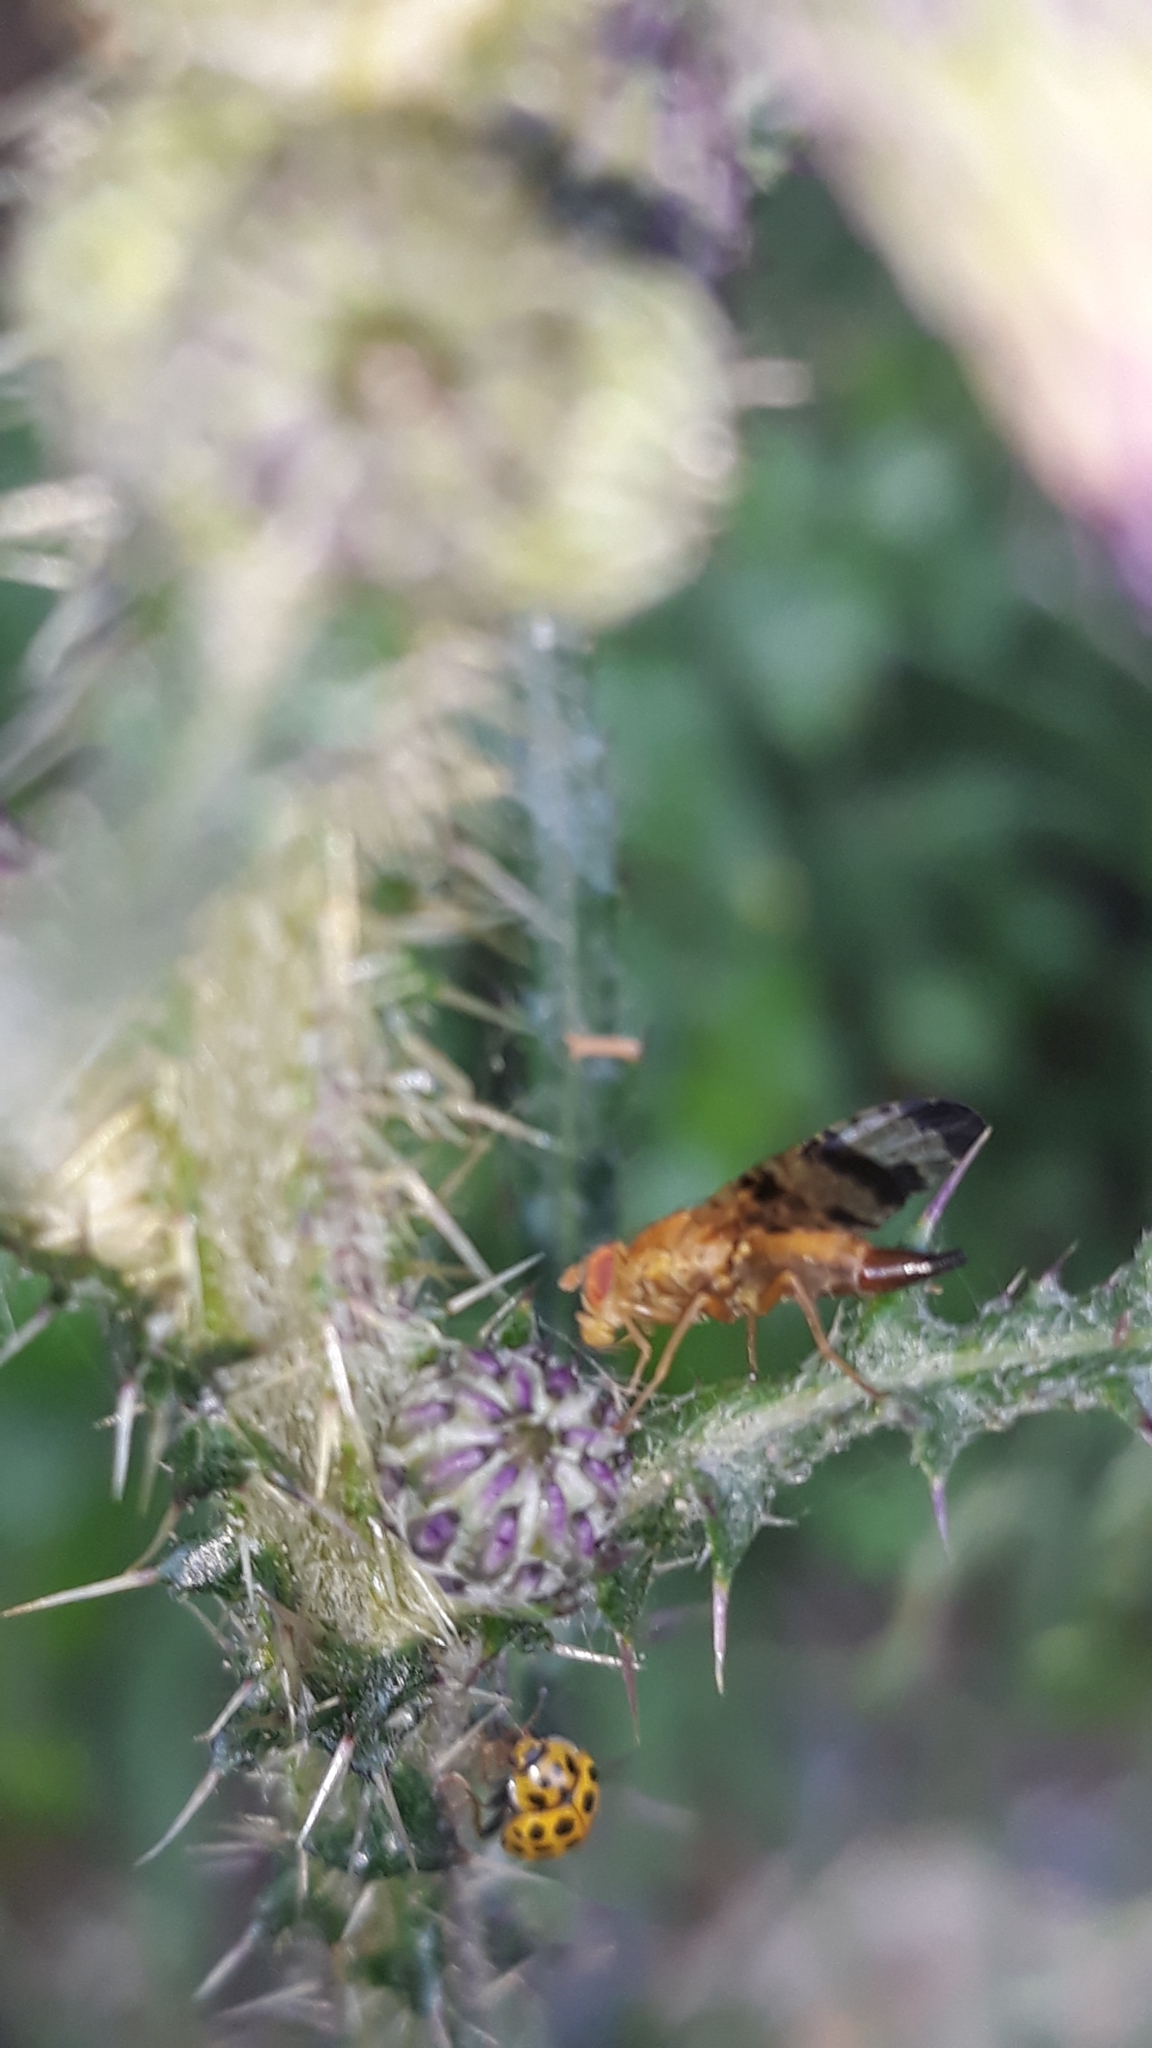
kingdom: Animalia
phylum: Arthropoda
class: Insecta
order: Diptera
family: Tephritidae
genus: Xyphosia
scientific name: Xyphosia miliaria
